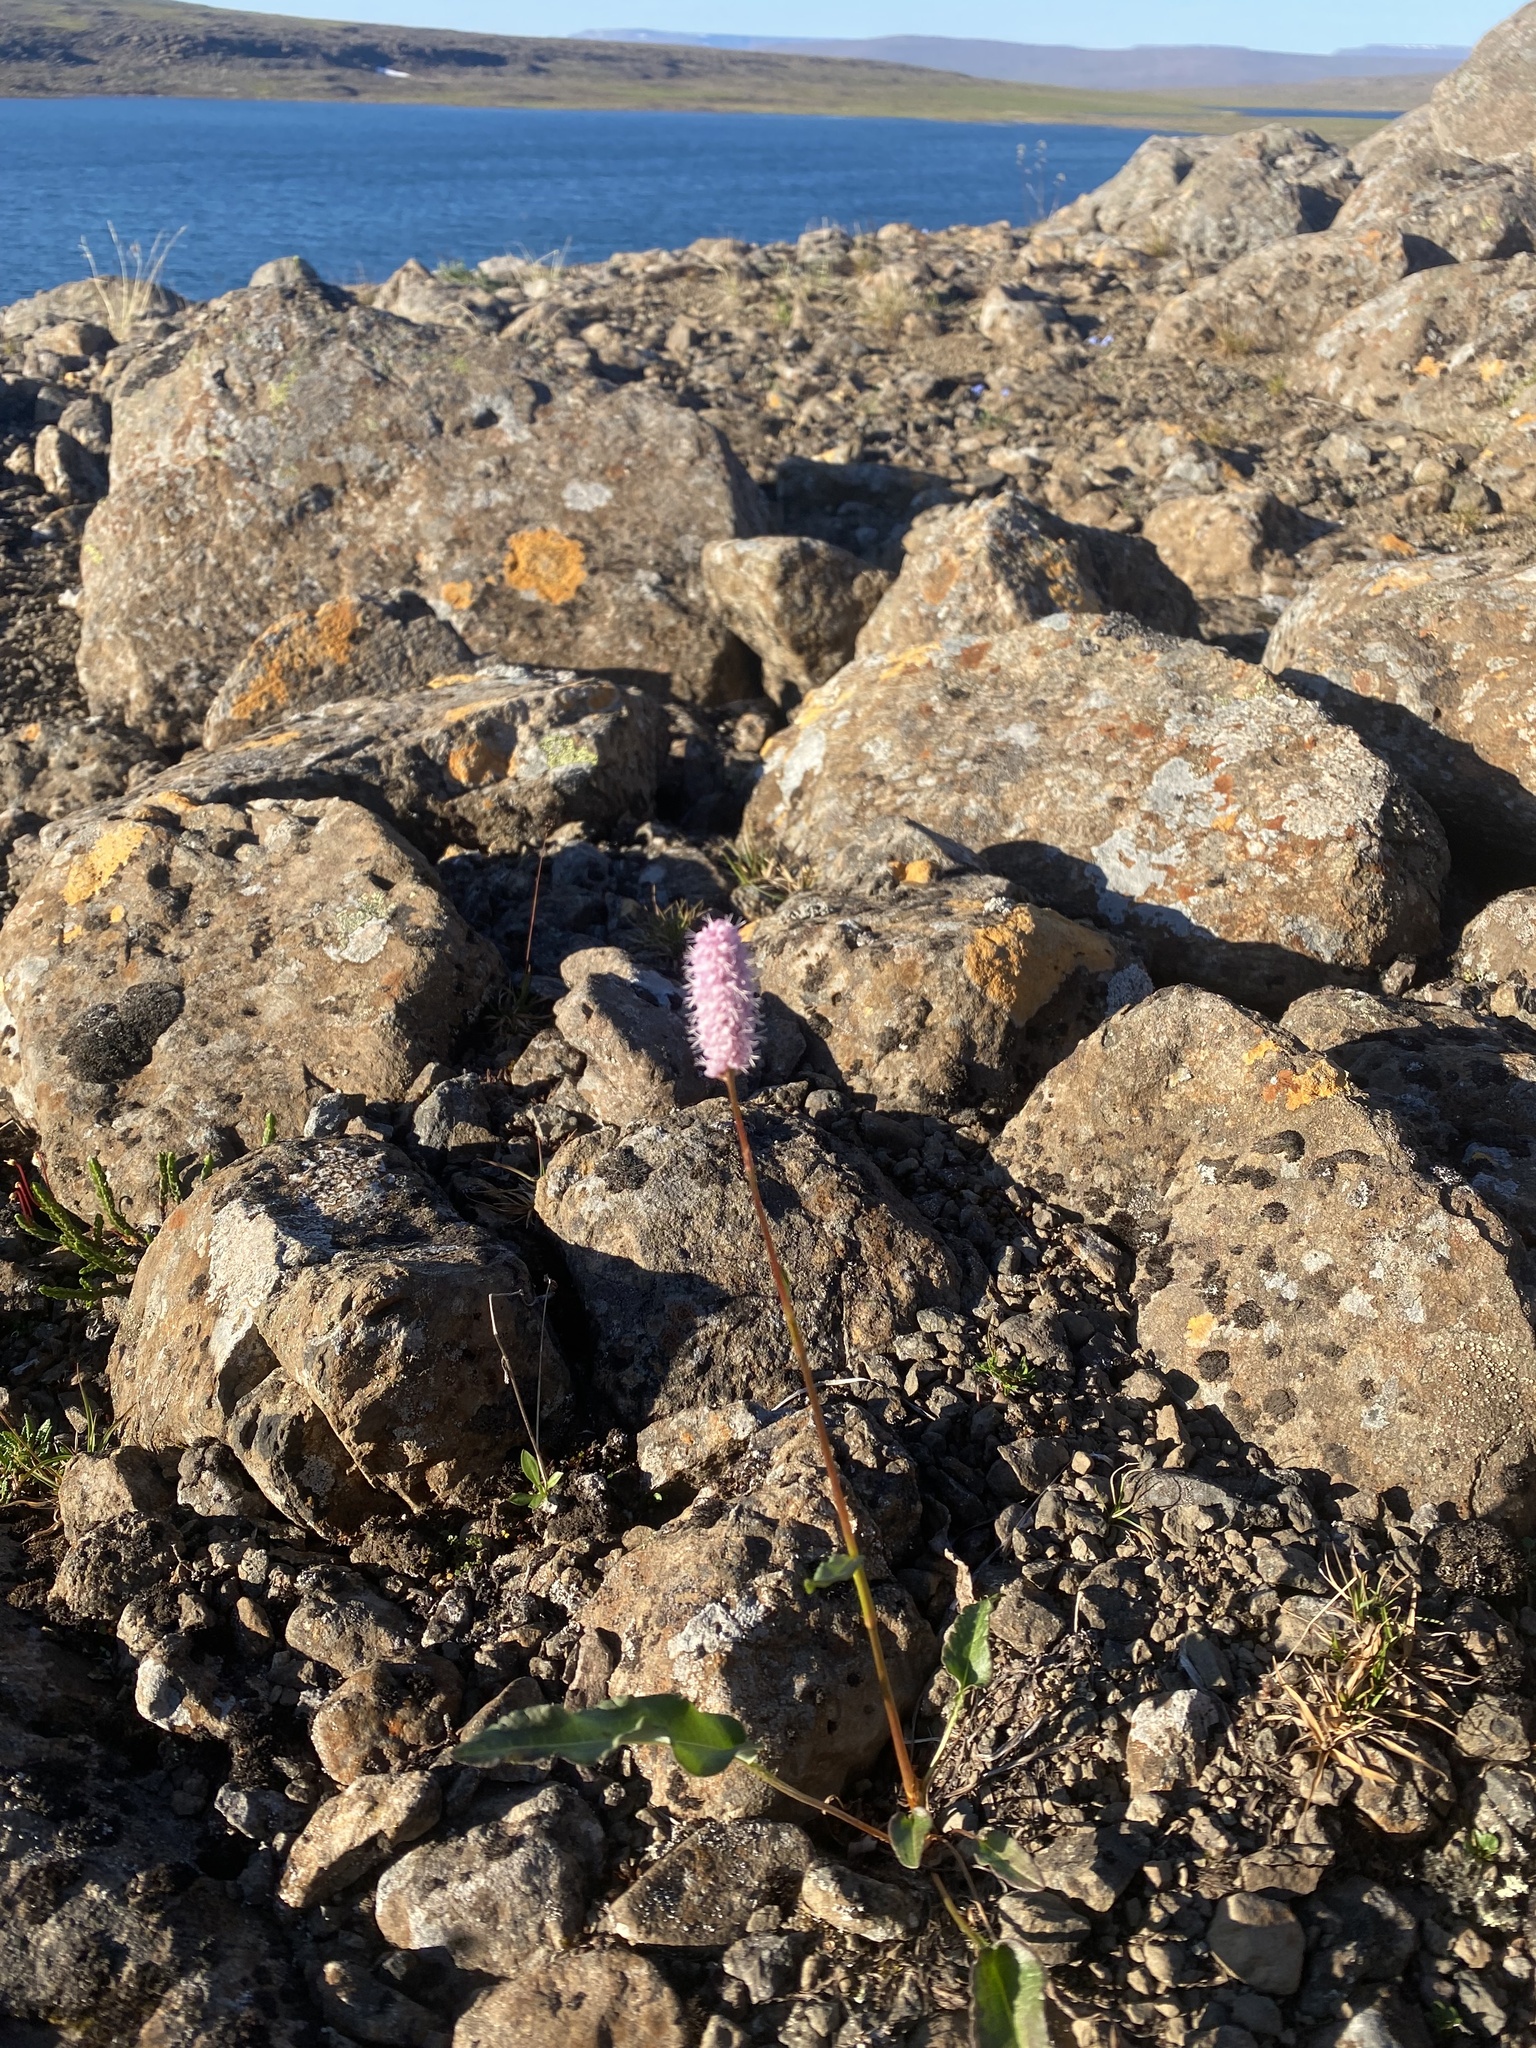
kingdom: Plantae
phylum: Tracheophyta
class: Magnoliopsida
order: Caryophyllales
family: Polygonaceae
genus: Bistorta
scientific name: Bistorta officinalis
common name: Common bistort
